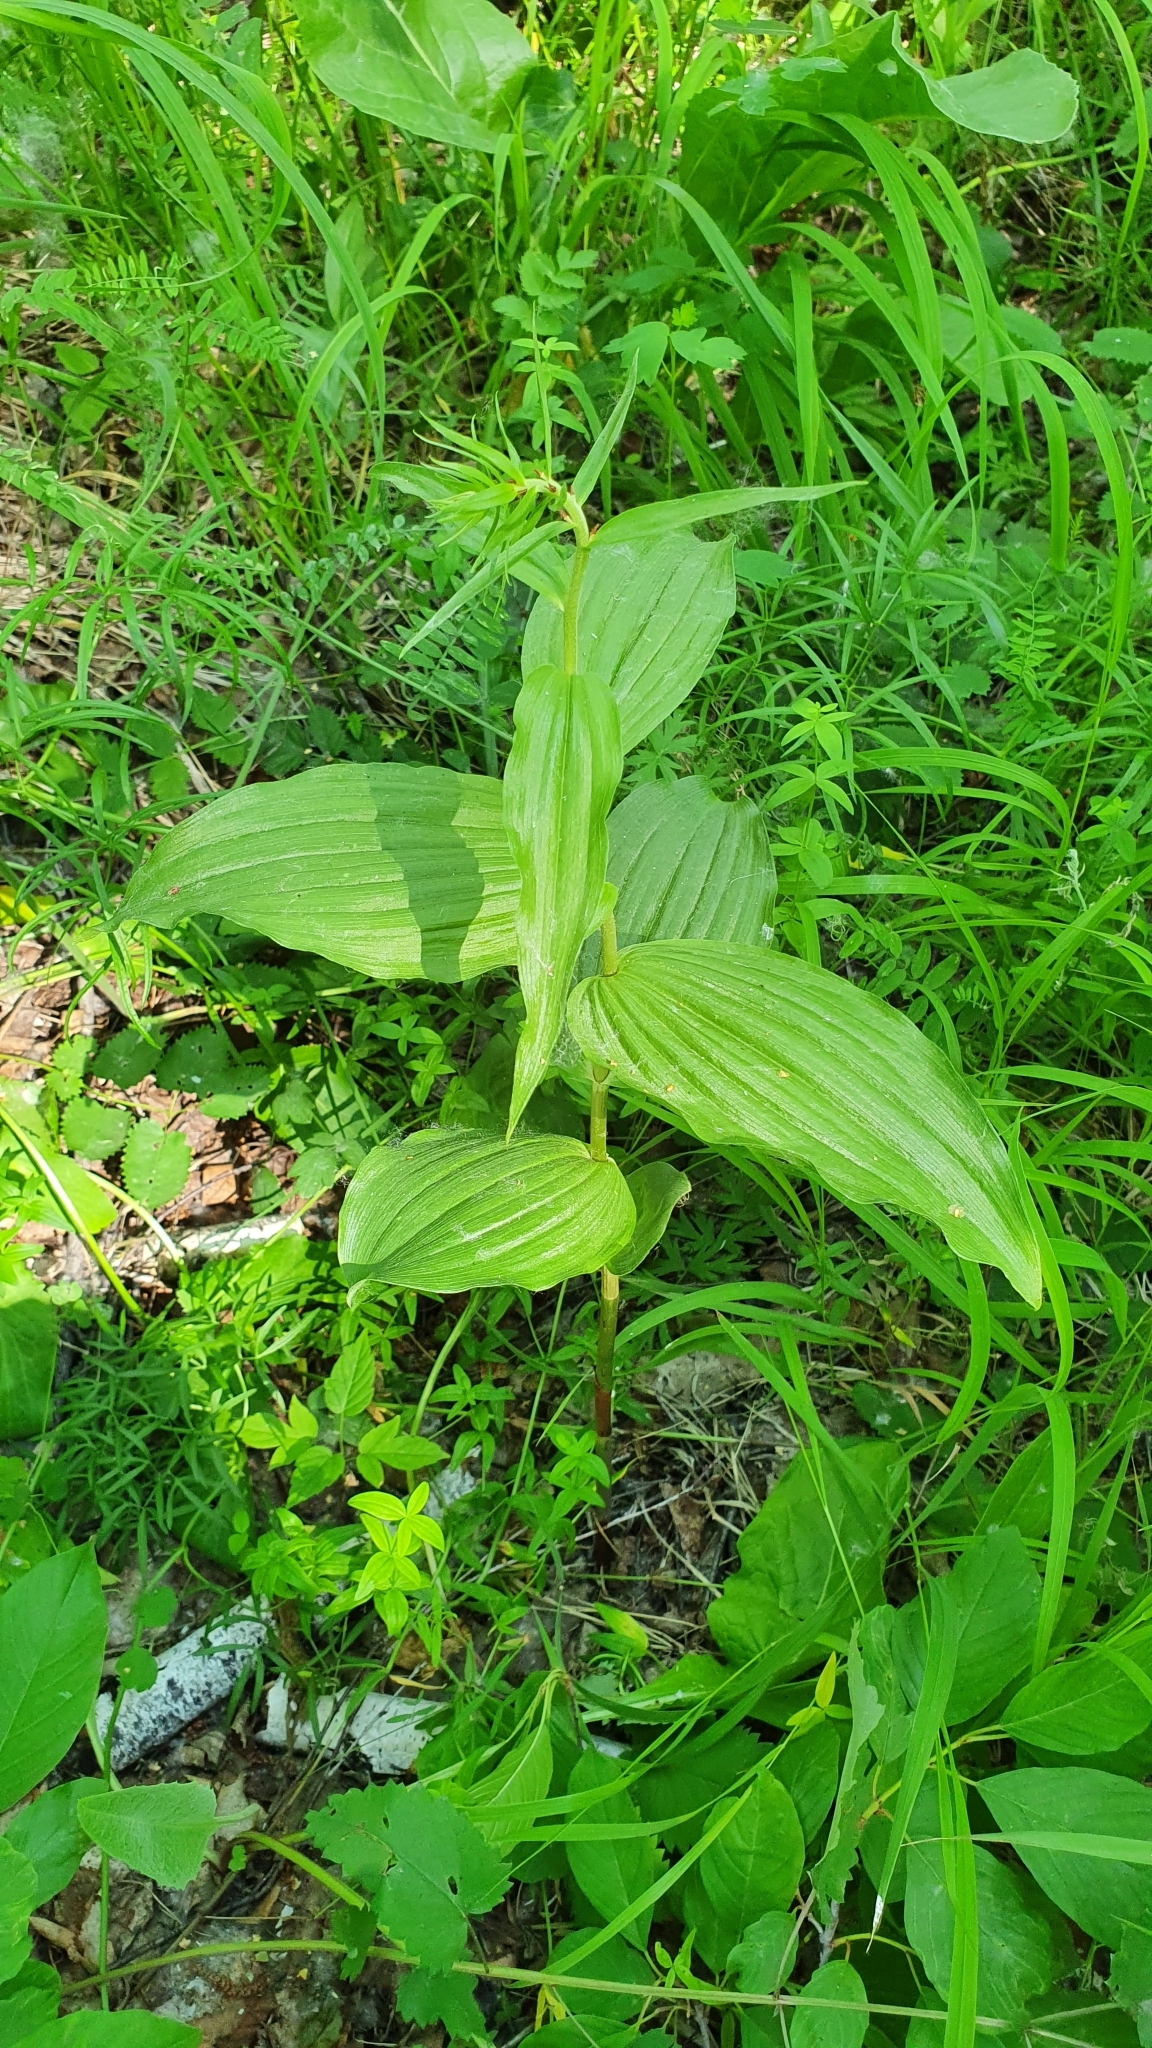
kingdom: Plantae
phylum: Tracheophyta
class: Liliopsida
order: Asparagales
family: Orchidaceae
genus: Epipactis
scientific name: Epipactis helleborine
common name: Broad-leaved helleborine
